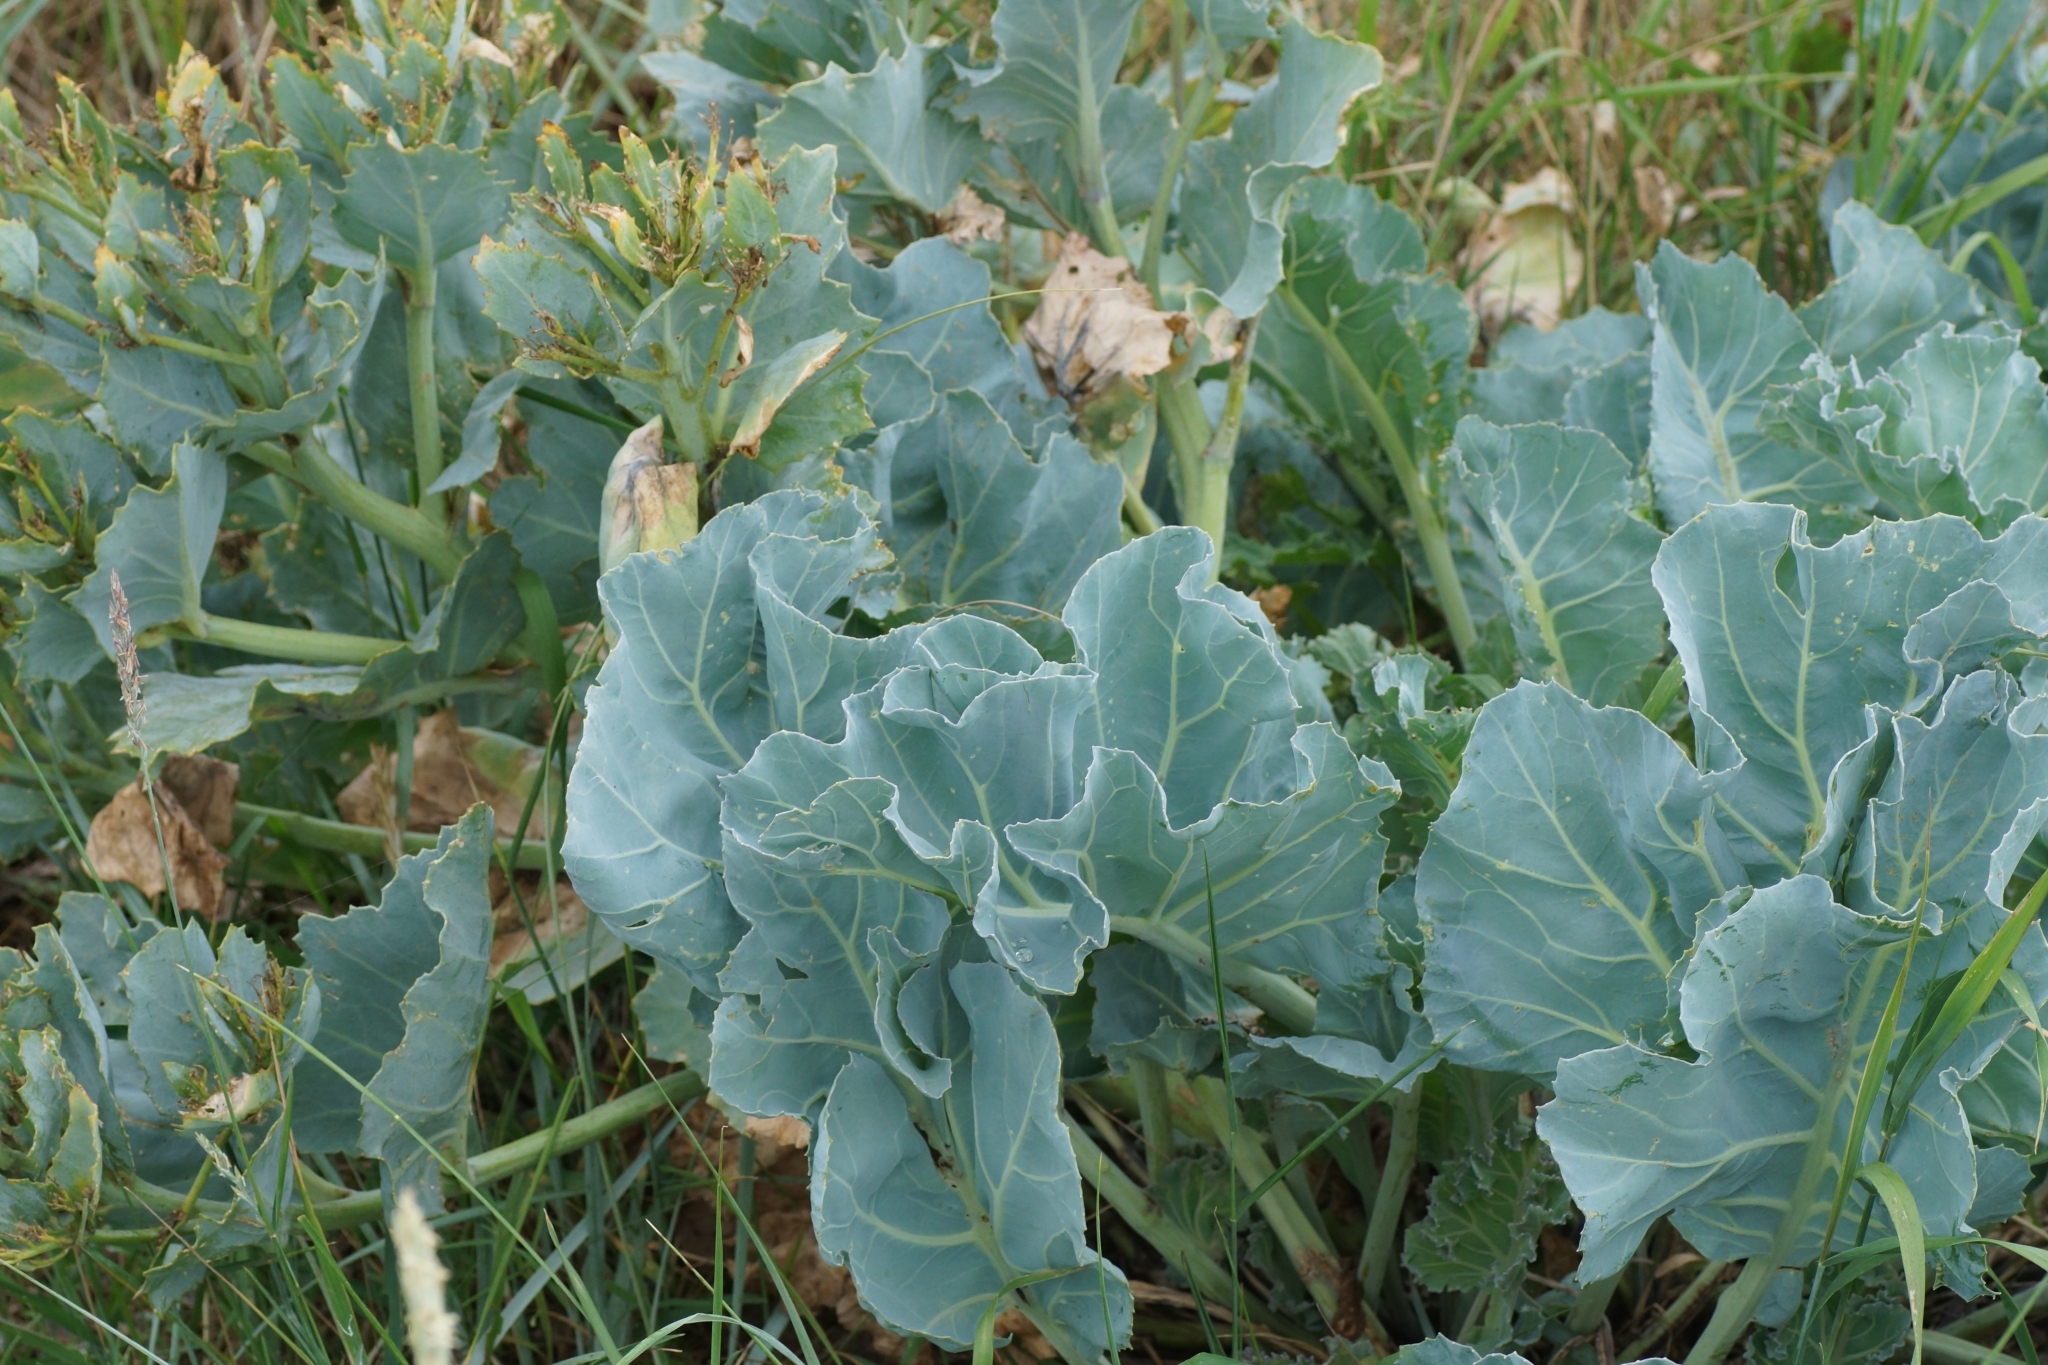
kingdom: Plantae
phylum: Tracheophyta
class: Magnoliopsida
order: Brassicales
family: Brassicaceae
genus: Crambe
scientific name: Crambe maritima
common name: Sea-kale
